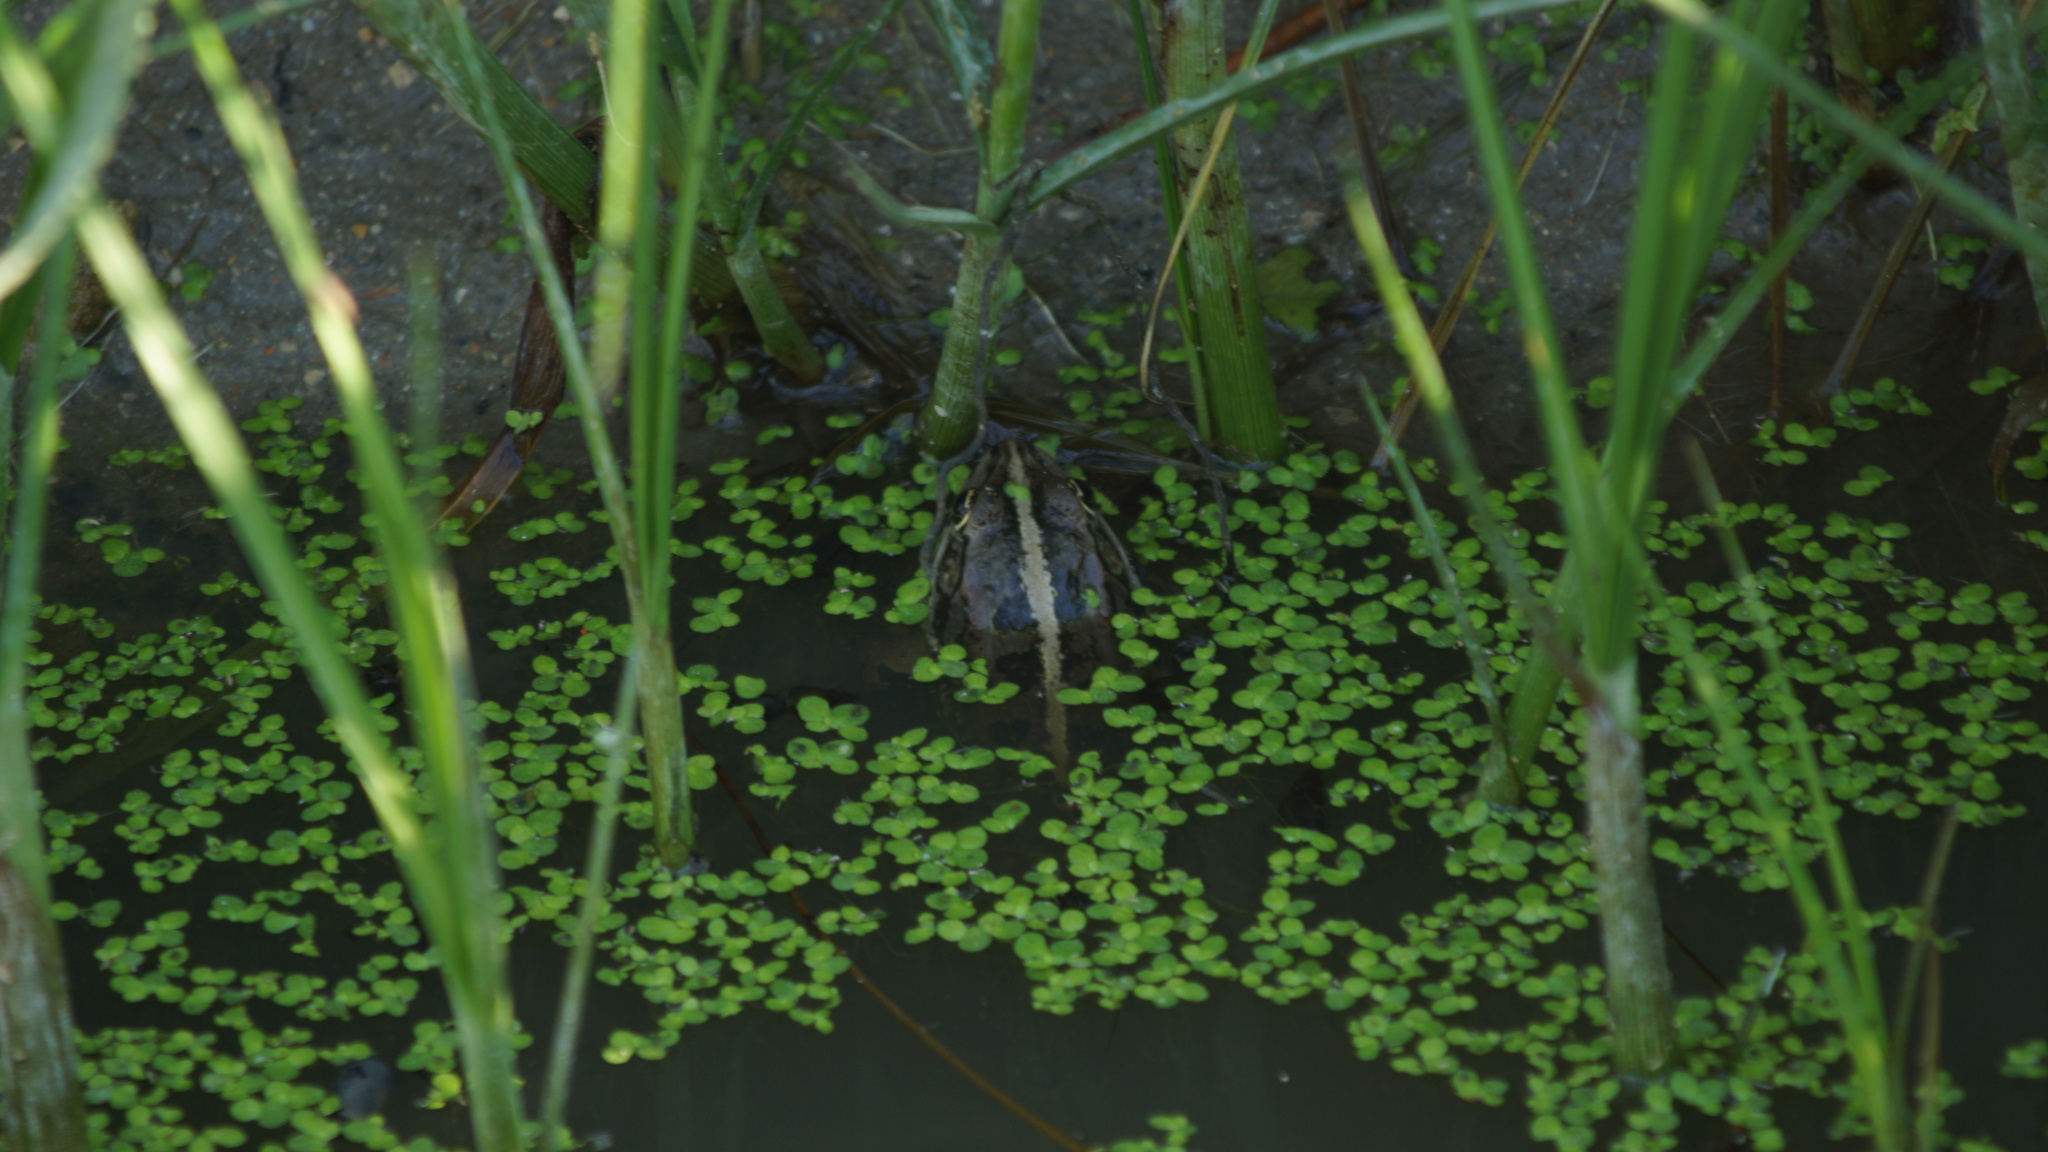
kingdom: Animalia
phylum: Chordata
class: Amphibia
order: Anura
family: Ranidae
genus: Pelophylax
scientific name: Pelophylax ridibundus
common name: Marsh frog
